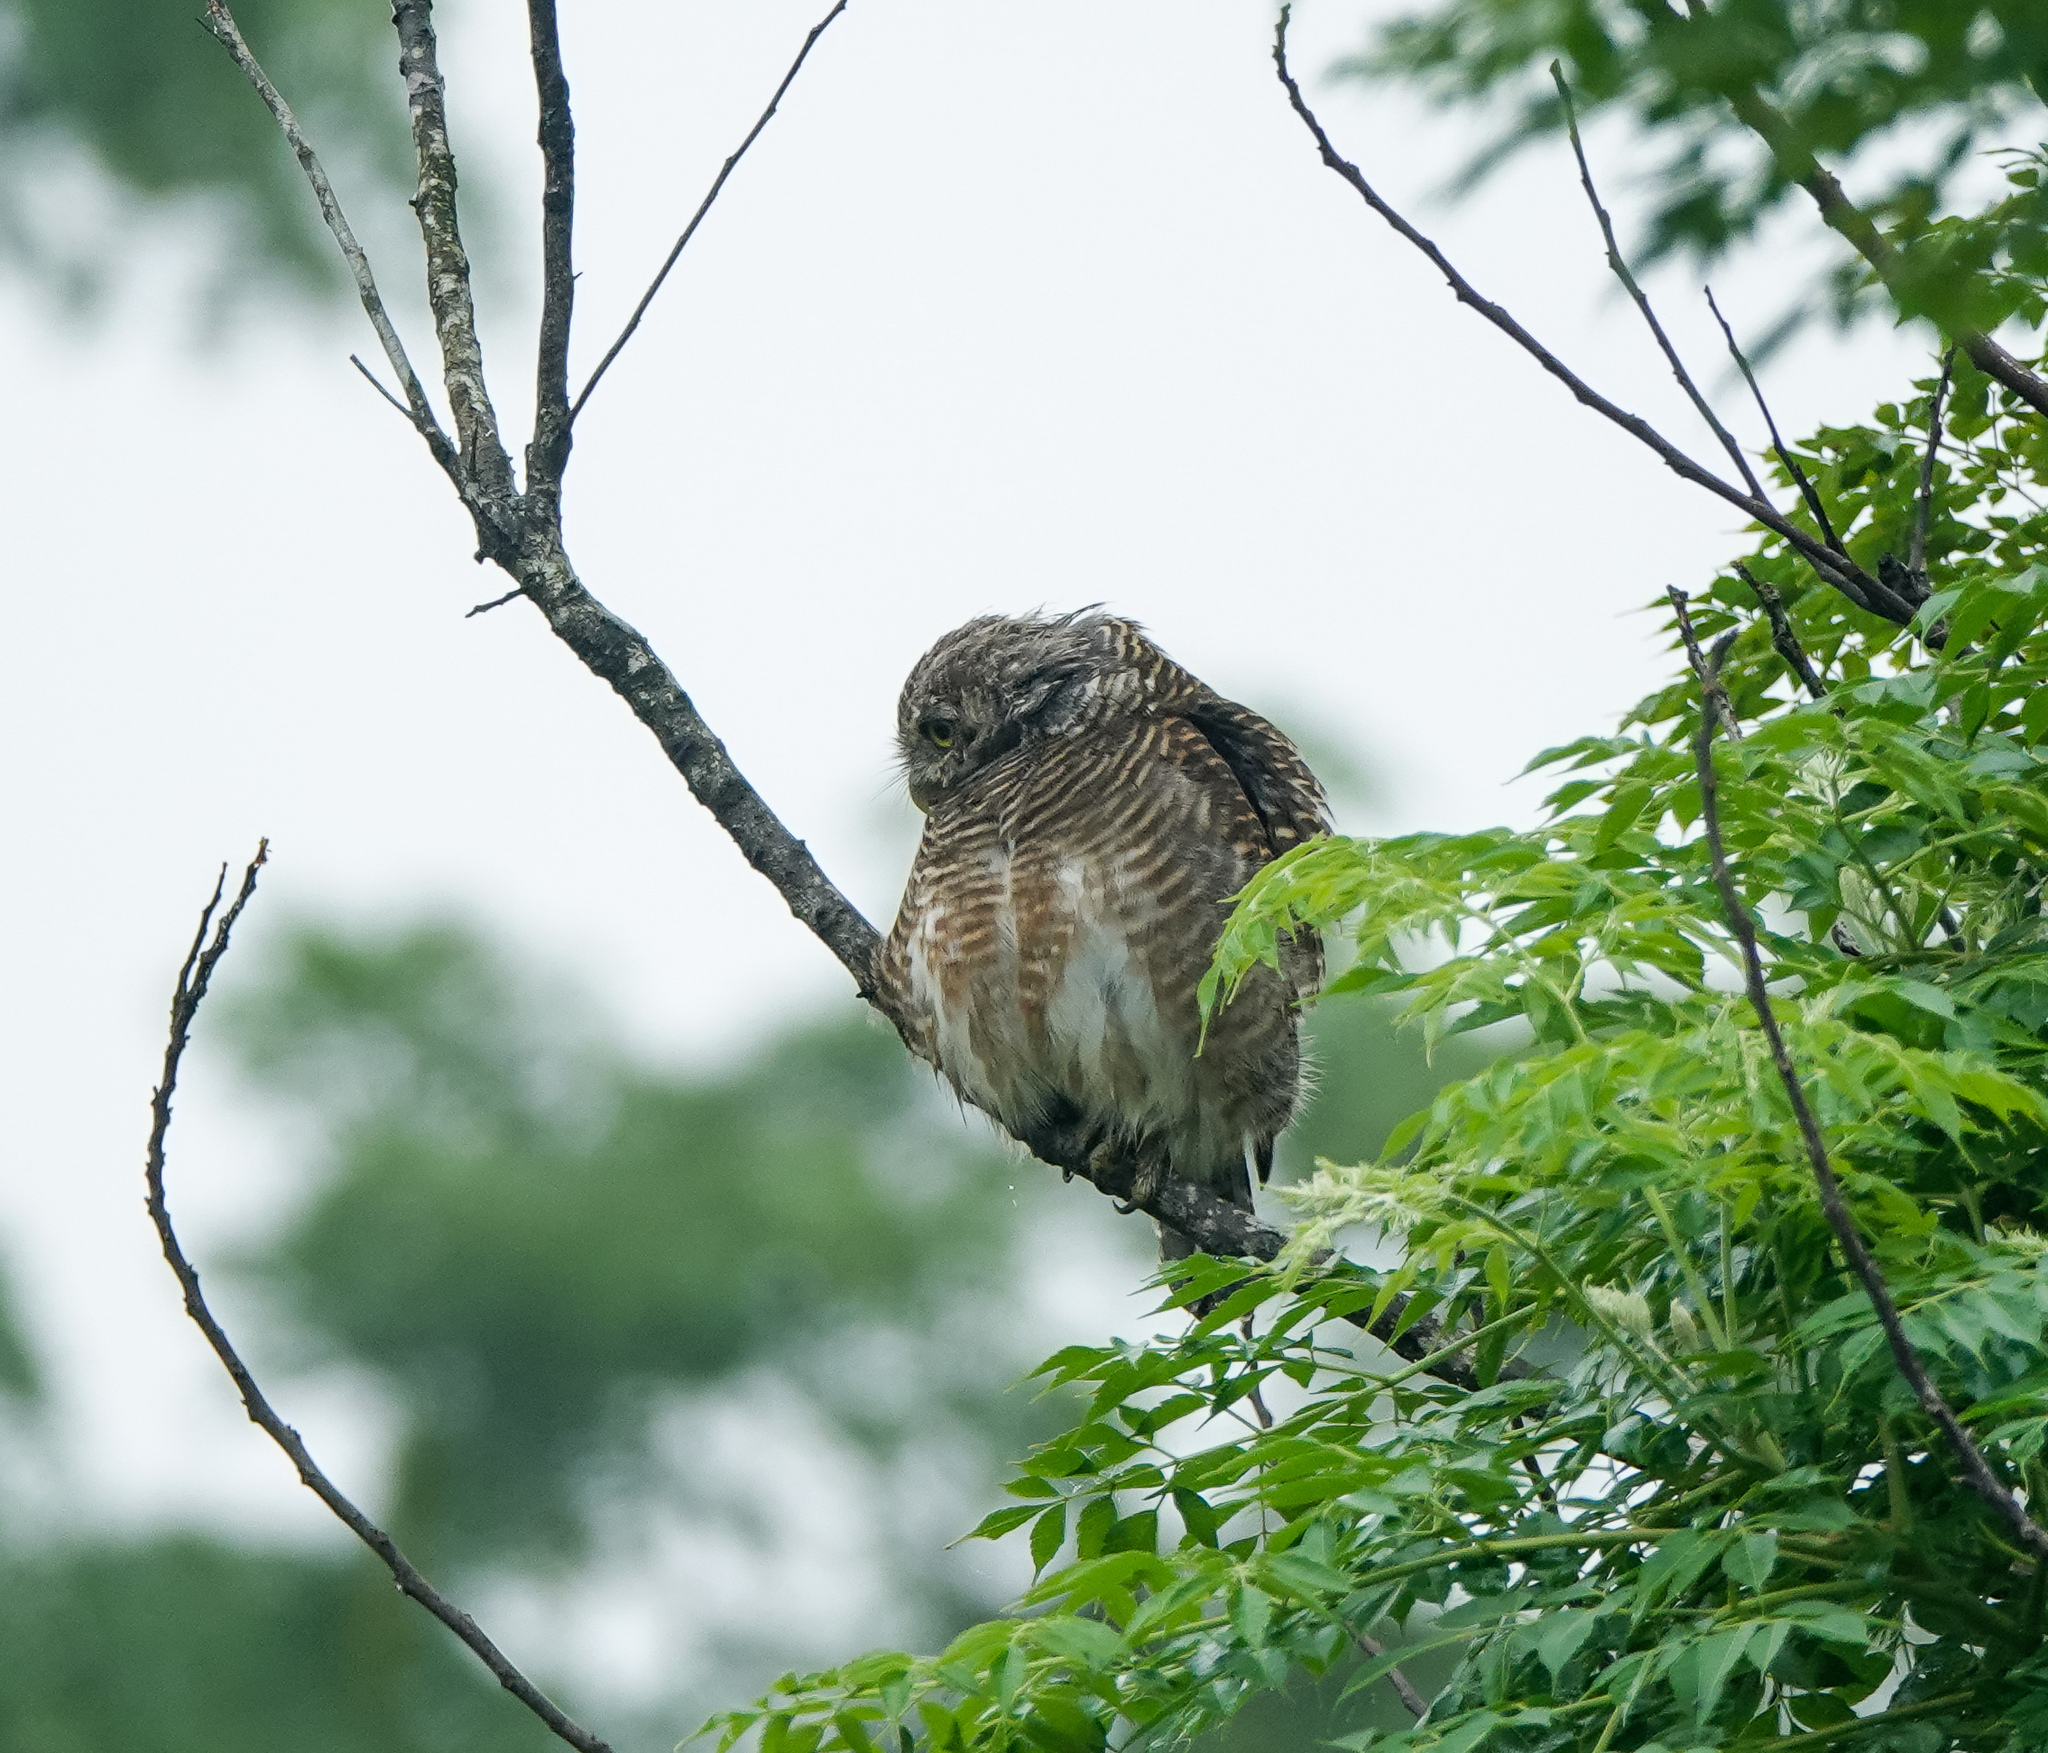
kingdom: Animalia
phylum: Chordata
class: Aves
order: Strigiformes
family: Strigidae
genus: Glaucidium
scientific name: Glaucidium cuculoides
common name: Asian barred owlet
